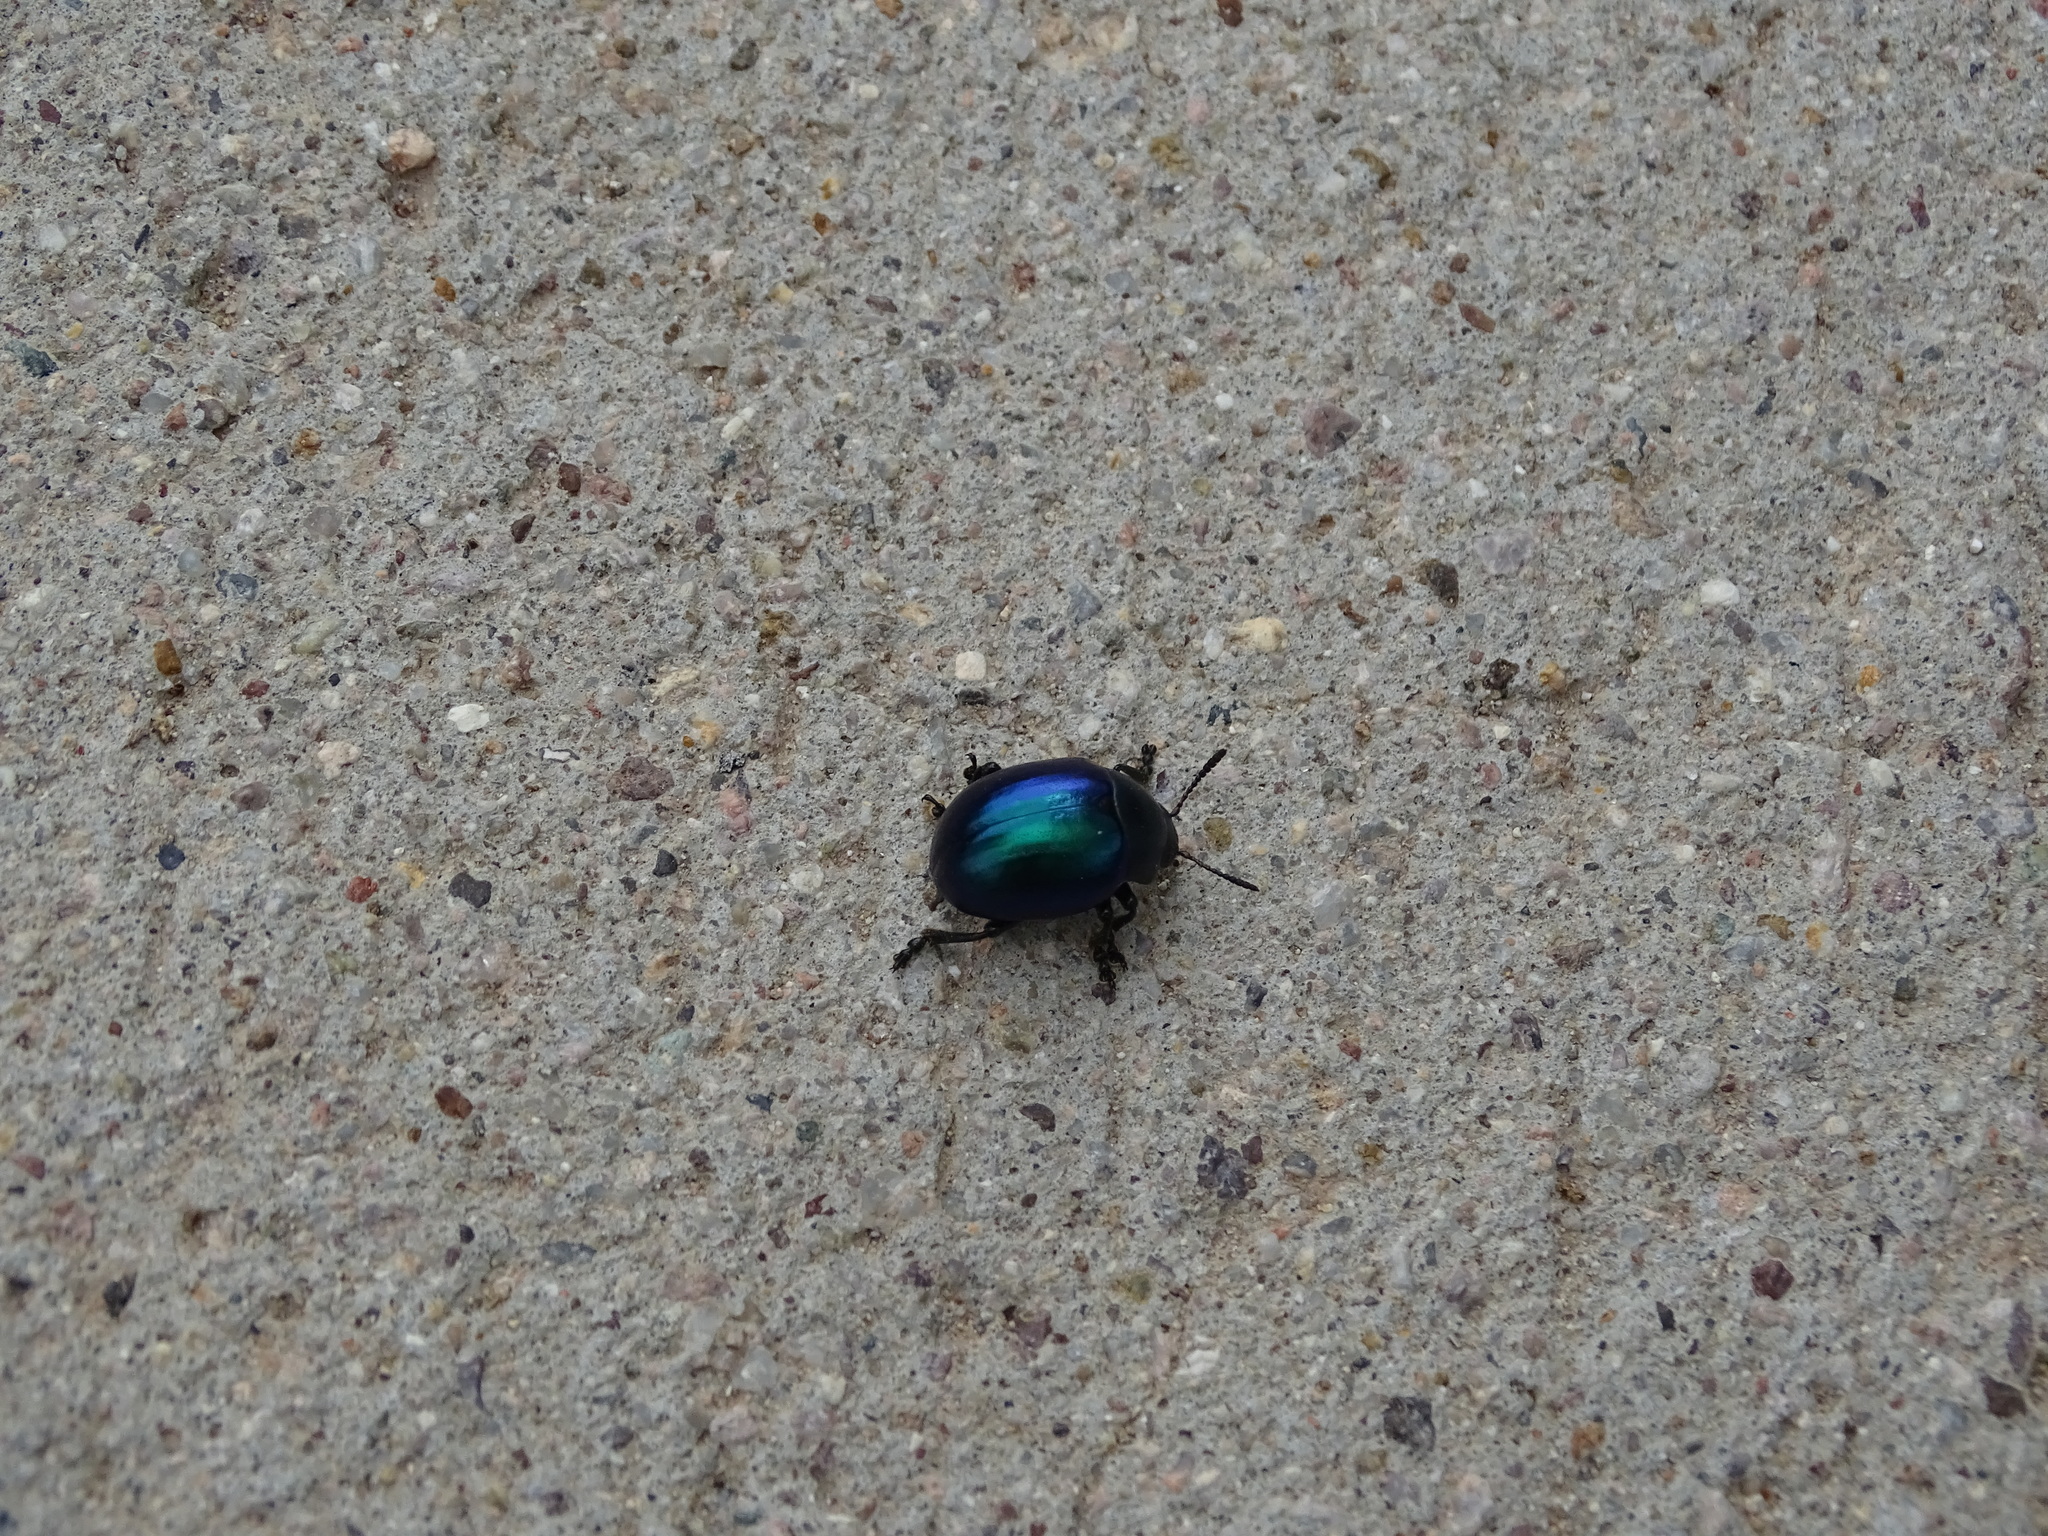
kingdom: Animalia
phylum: Arthropoda
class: Insecta
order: Coleoptera
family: Chrysomelidae
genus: Leptinotarsa
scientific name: Leptinotarsa haldemani
